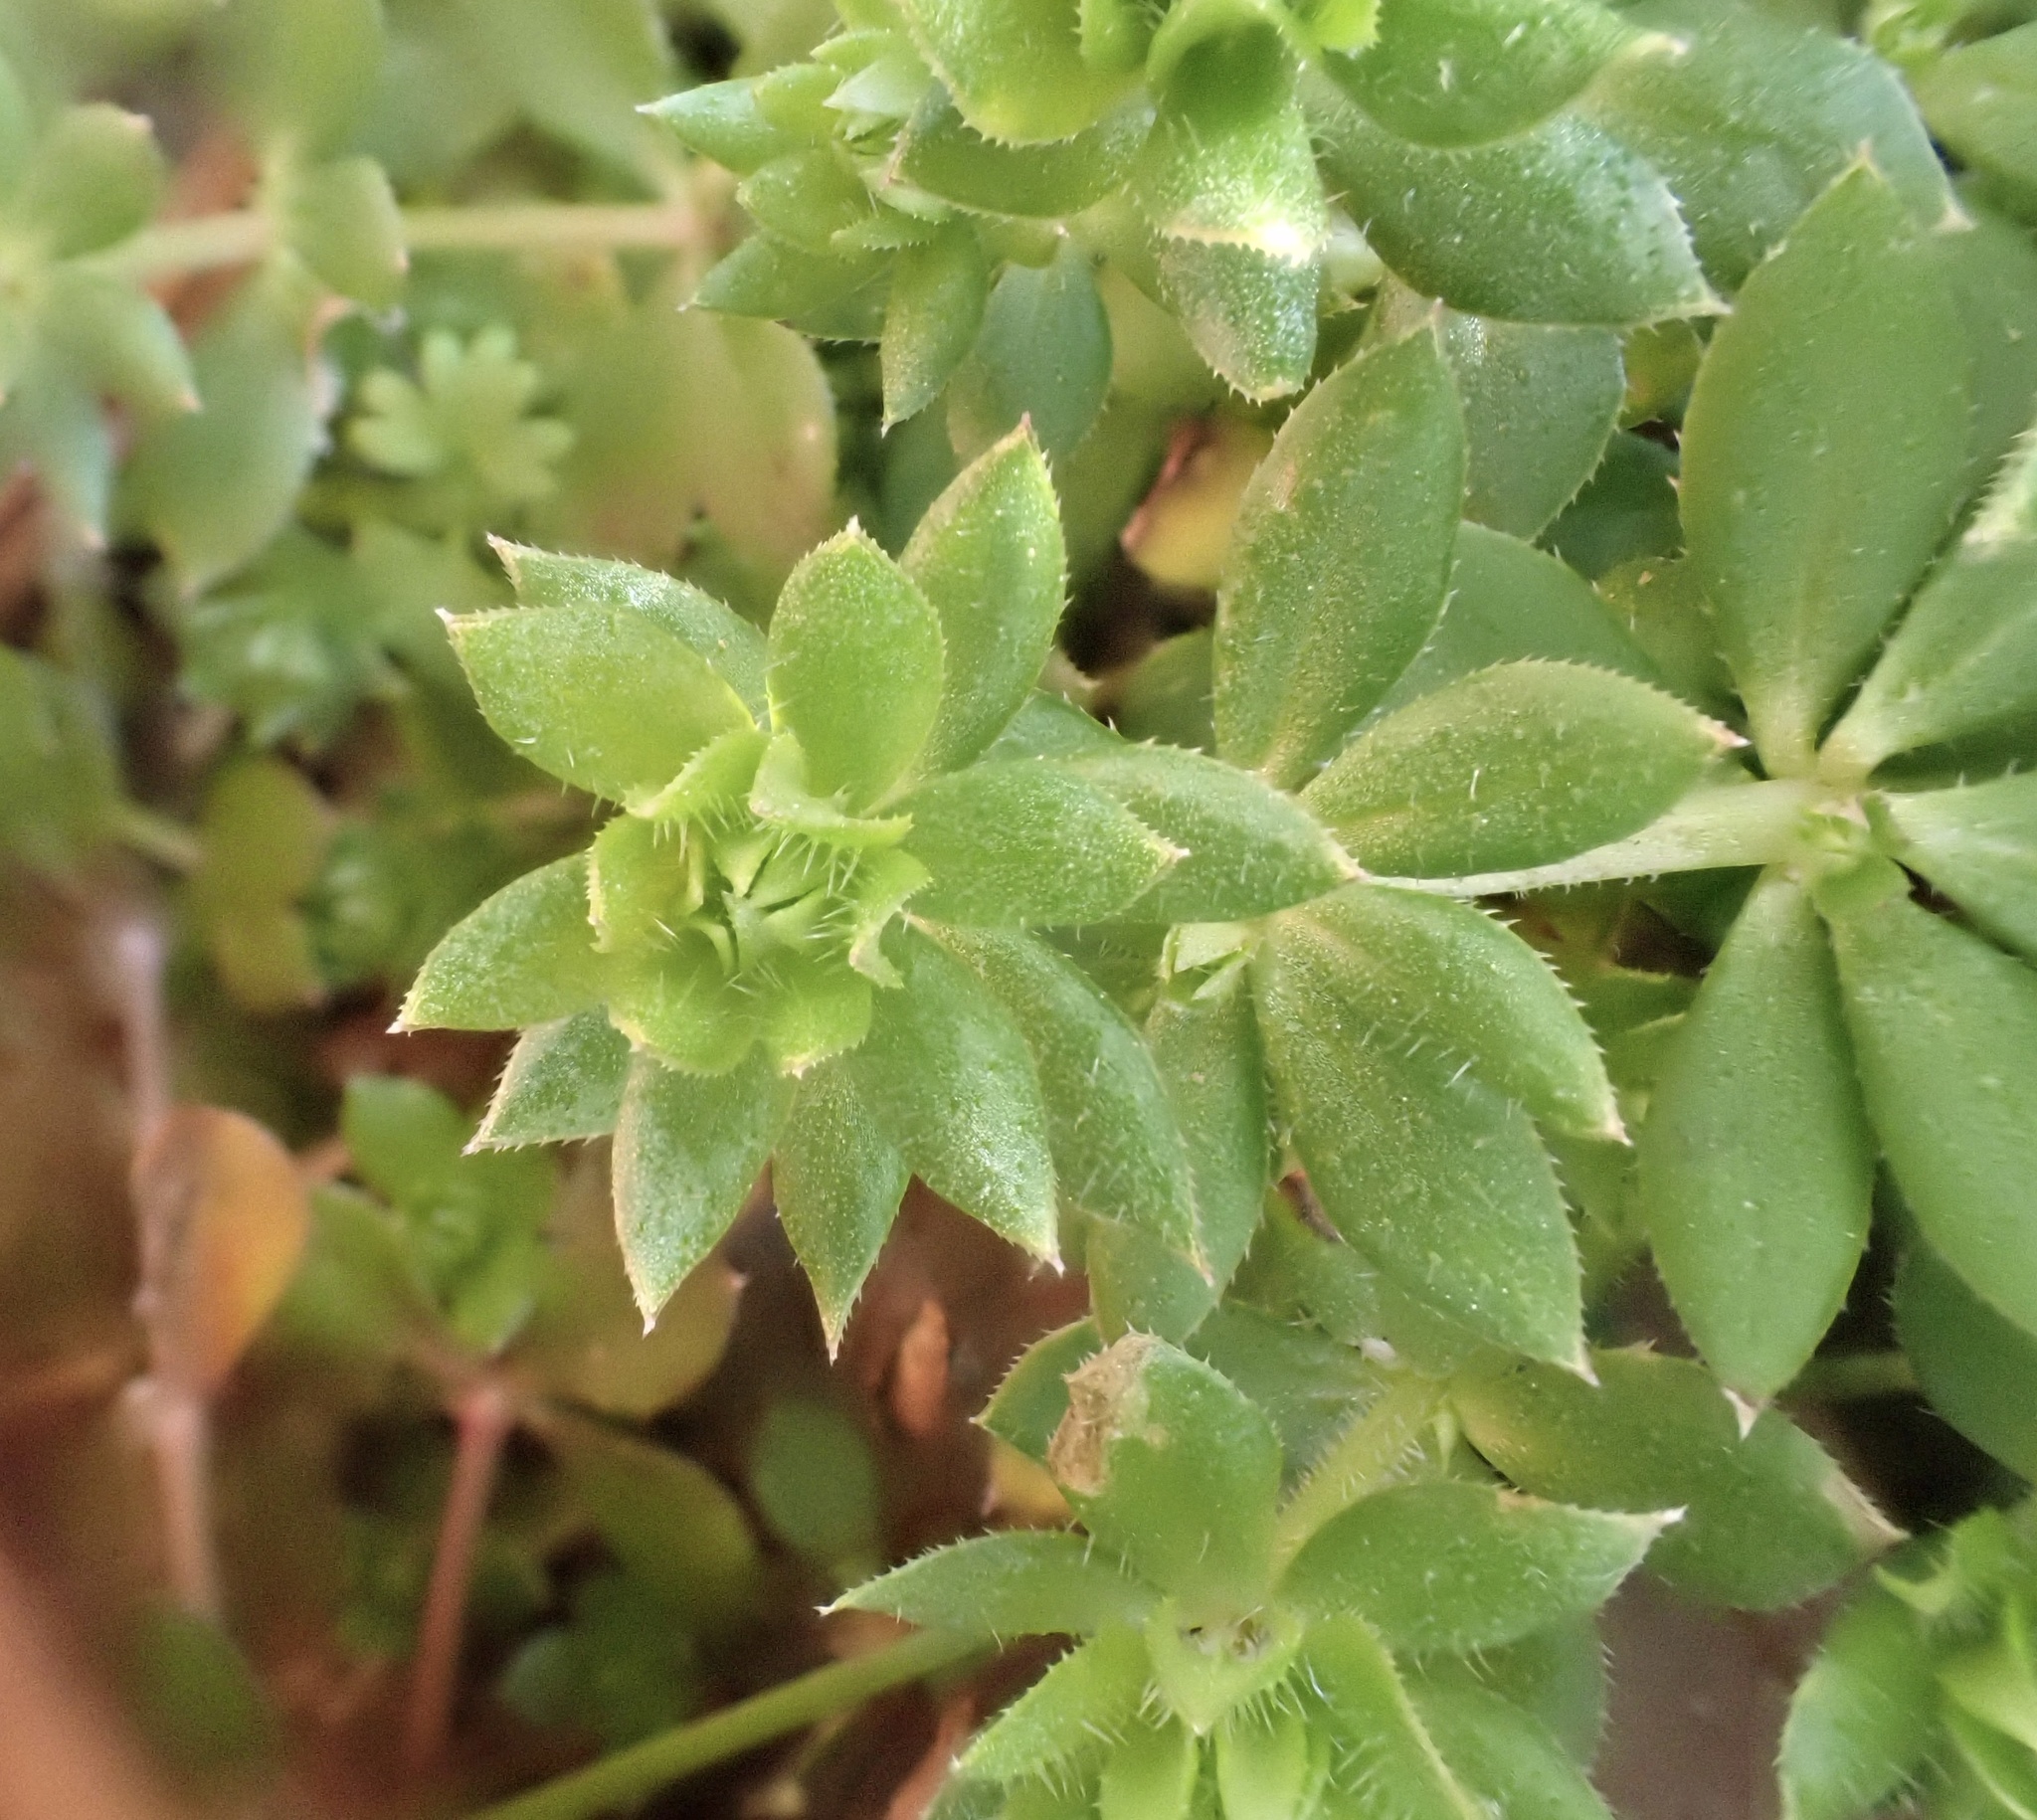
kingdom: Plantae
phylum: Tracheophyta
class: Magnoliopsida
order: Gentianales
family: Rubiaceae
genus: Sherardia
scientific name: Sherardia arvensis
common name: Field madder
